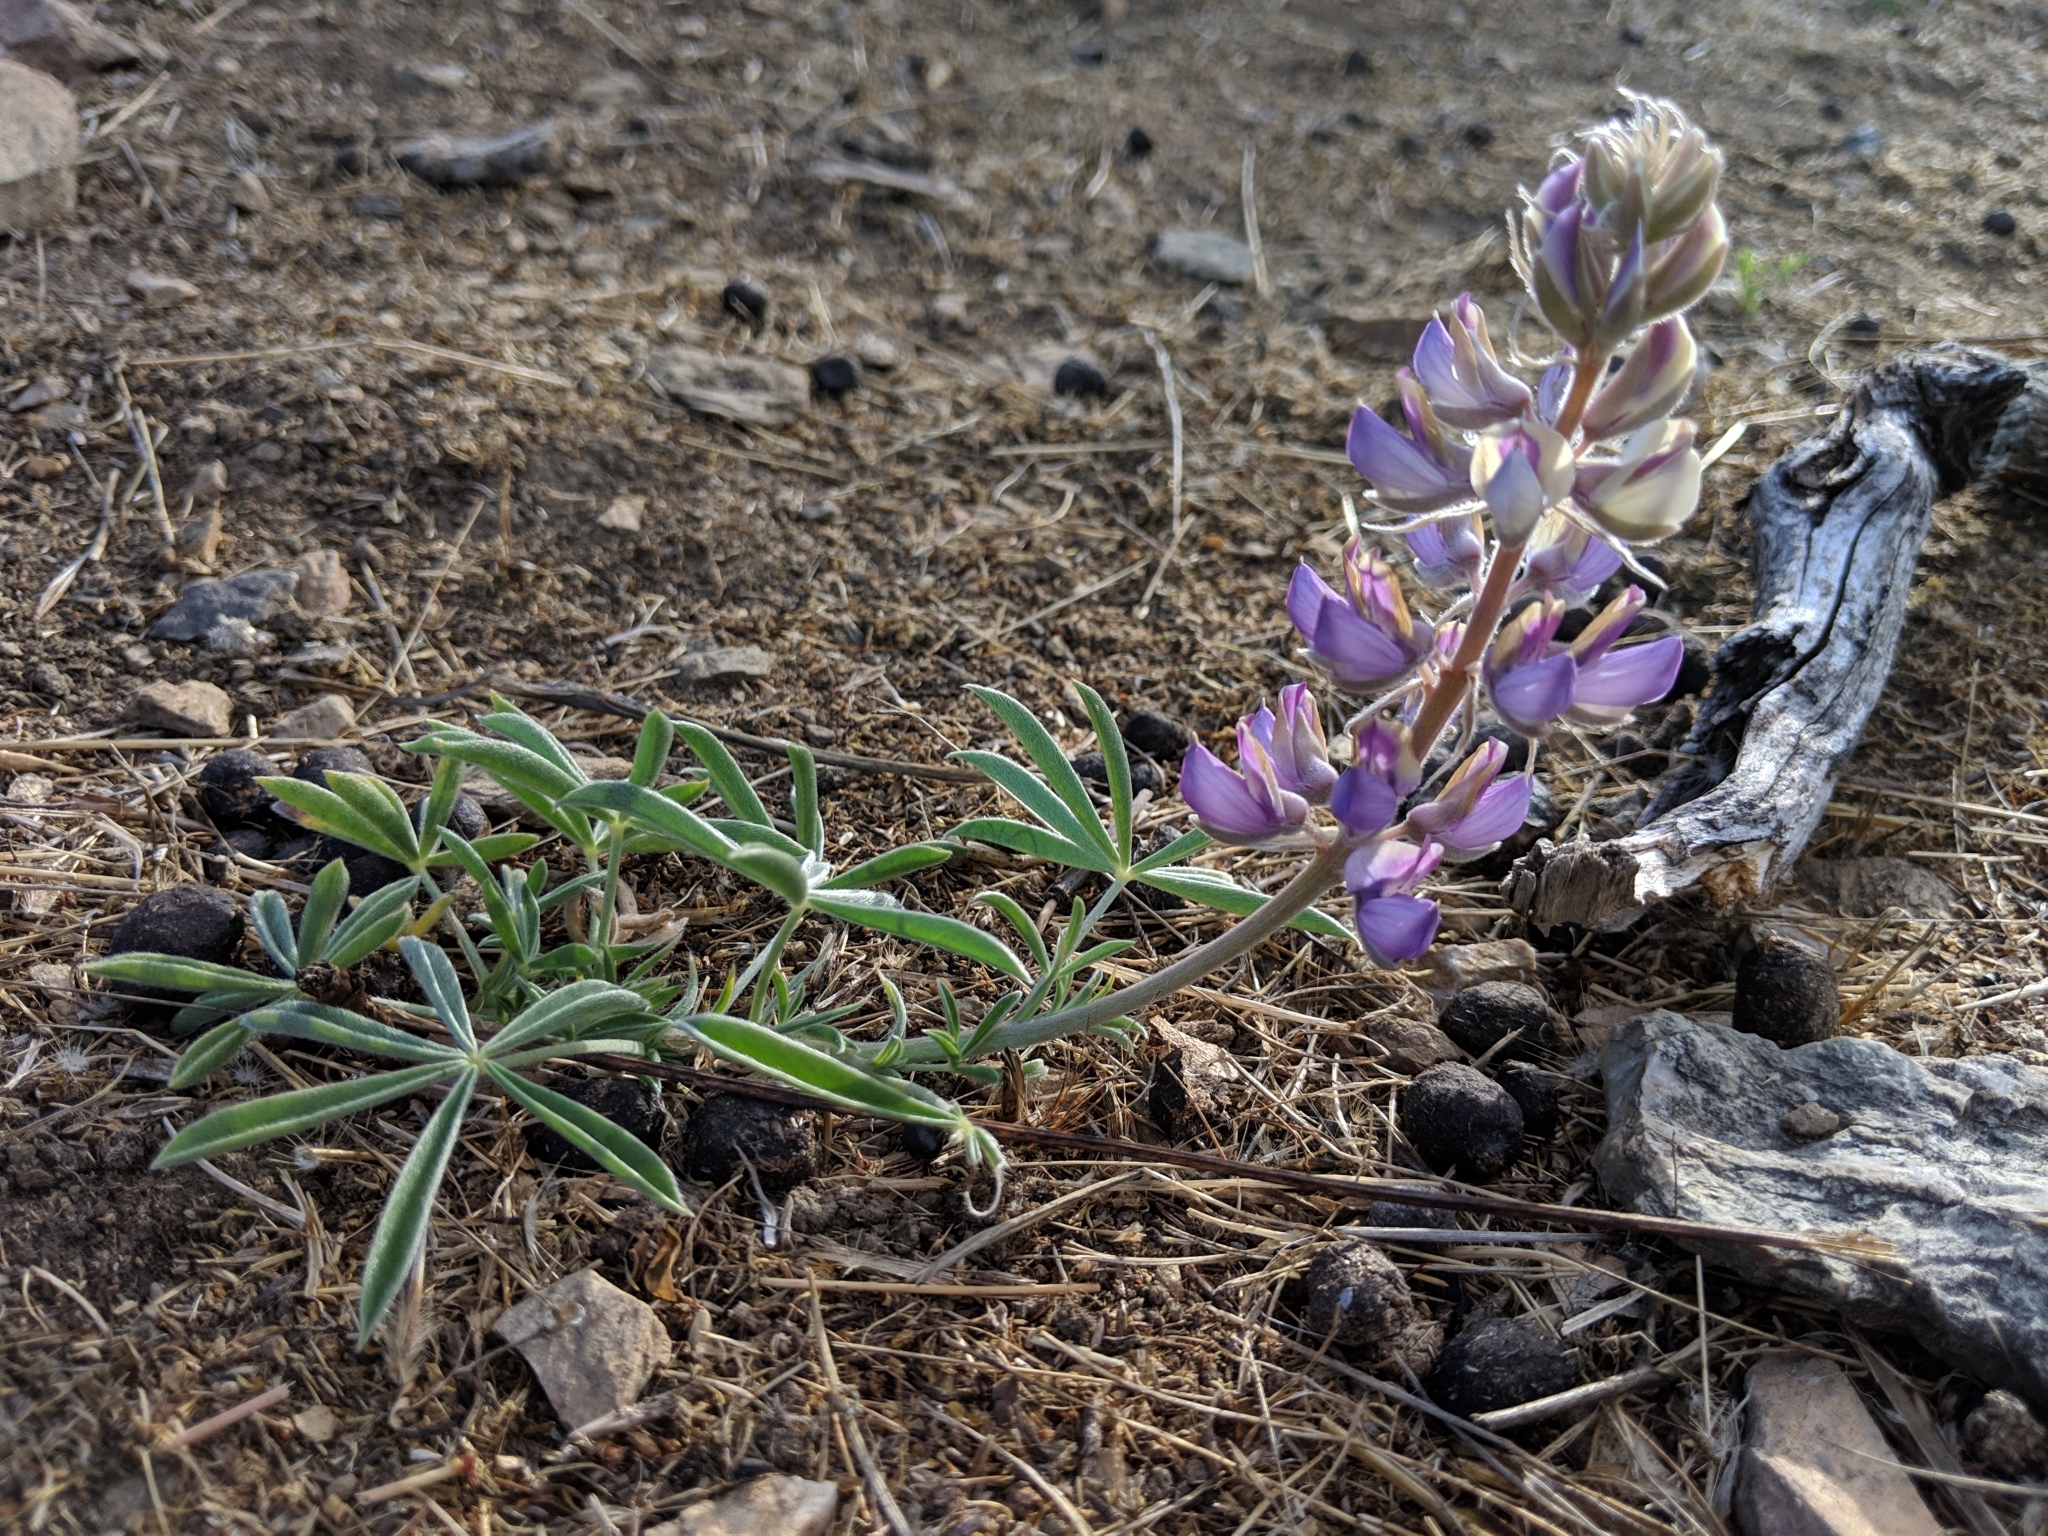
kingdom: Plantae
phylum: Tracheophyta
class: Magnoliopsida
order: Fabales
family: Fabaceae
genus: Lupinus
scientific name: Lupinus formosus
